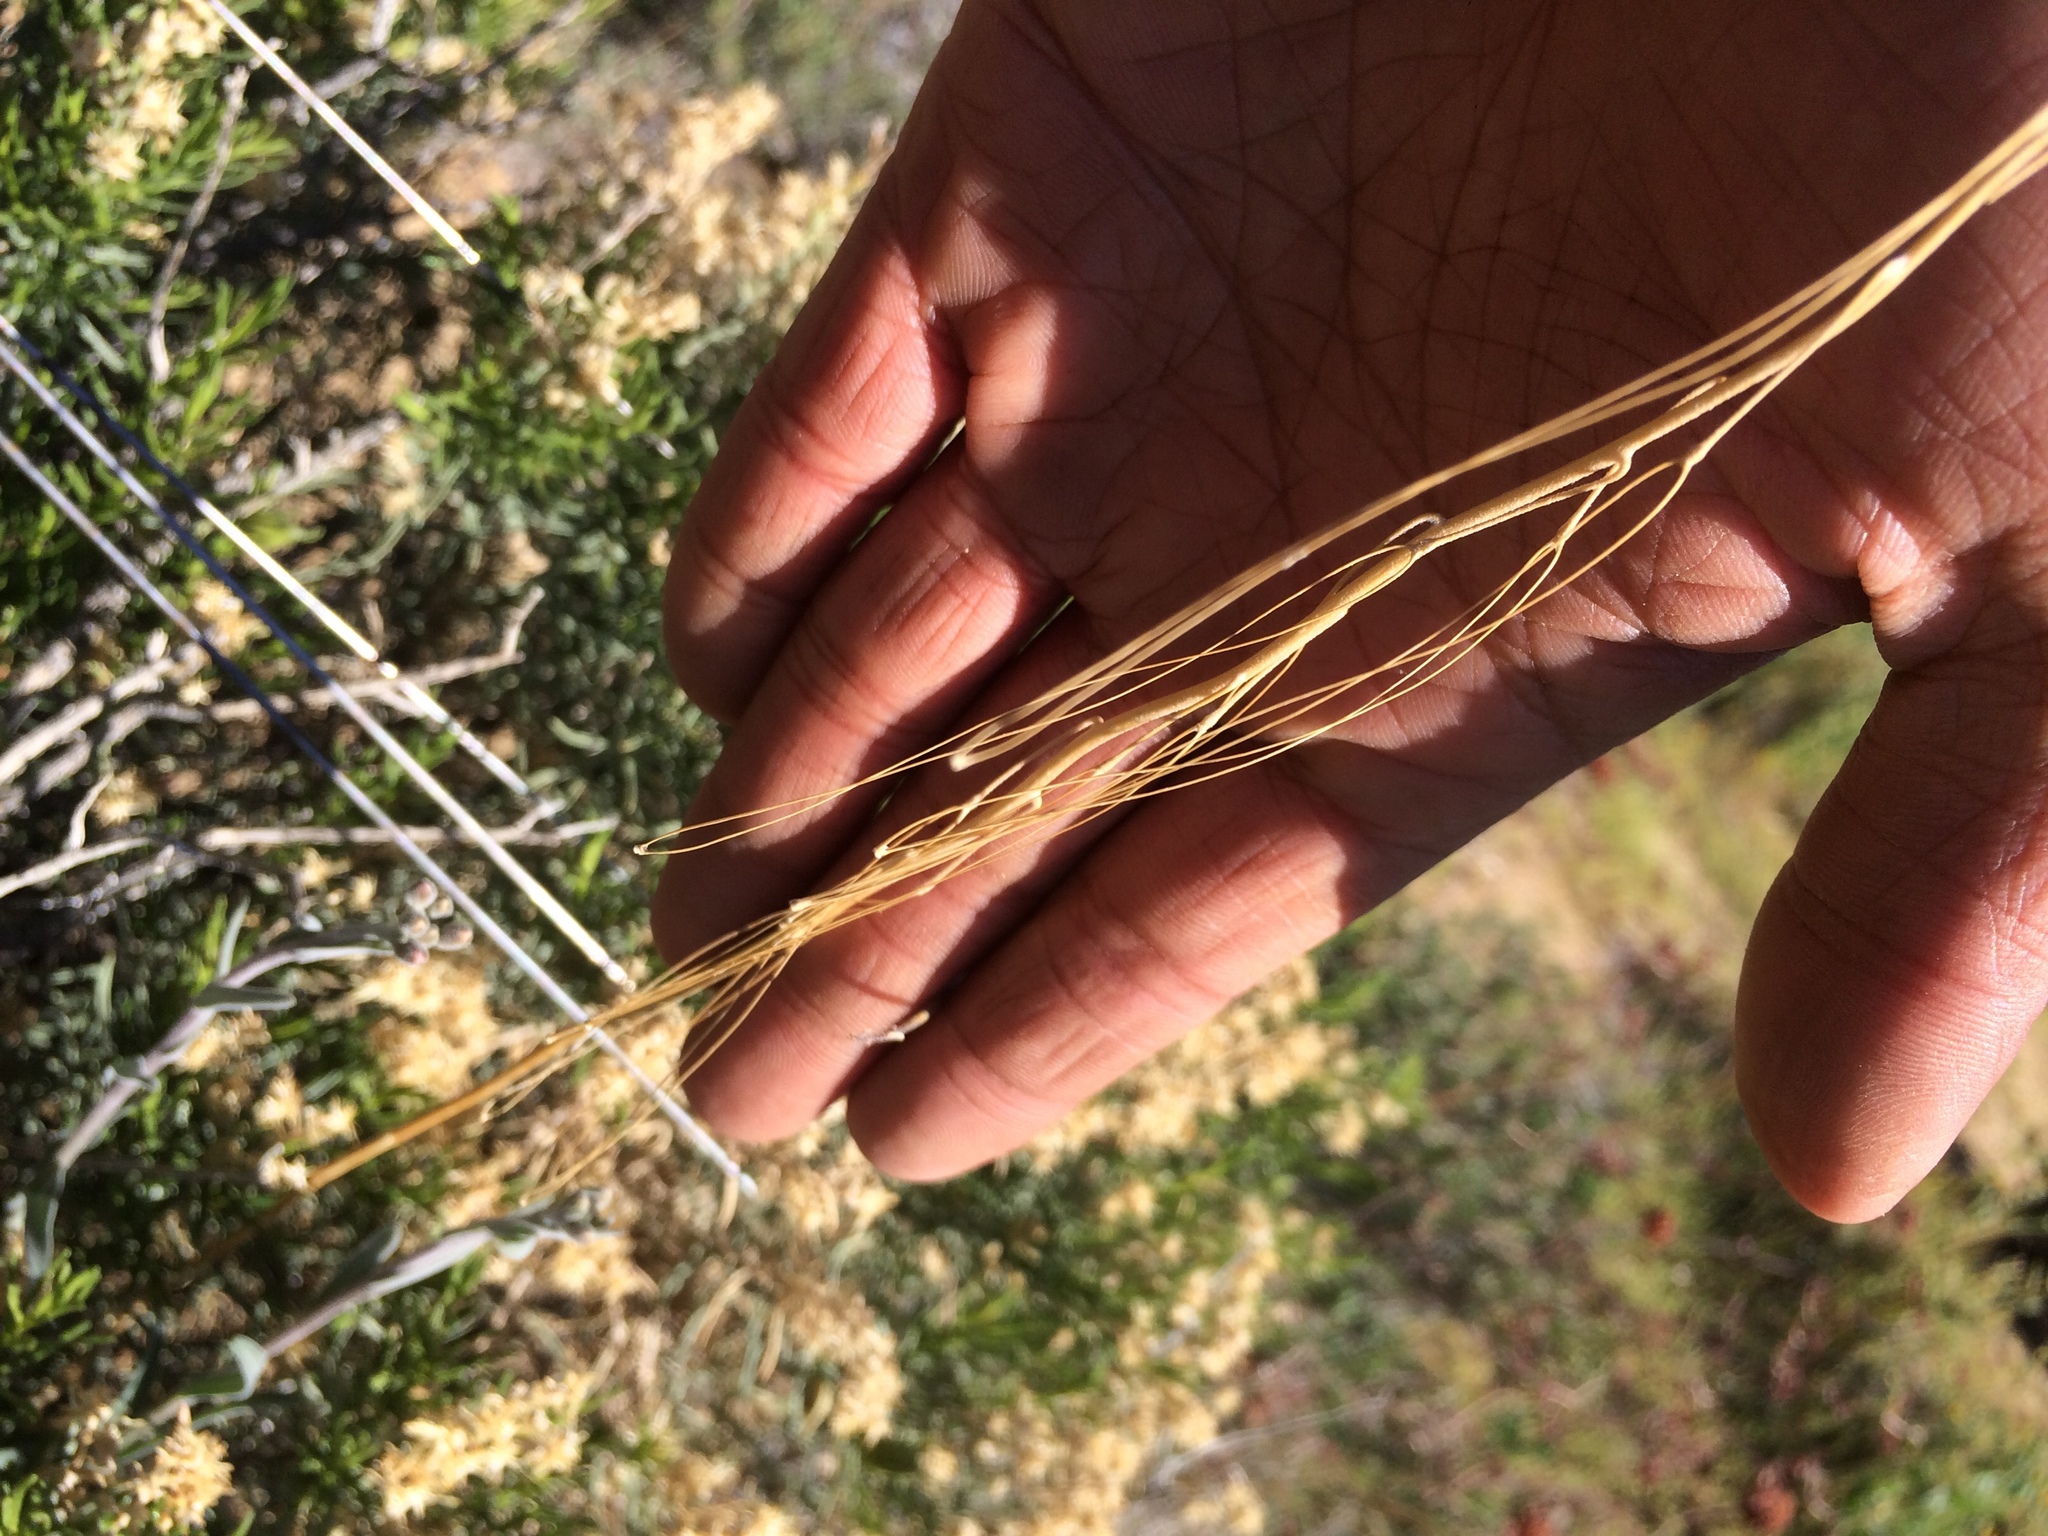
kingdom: Plantae
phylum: Tracheophyta
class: Magnoliopsida
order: Brassicales
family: Brassicaceae
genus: Boechera
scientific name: Boechera pulchra
